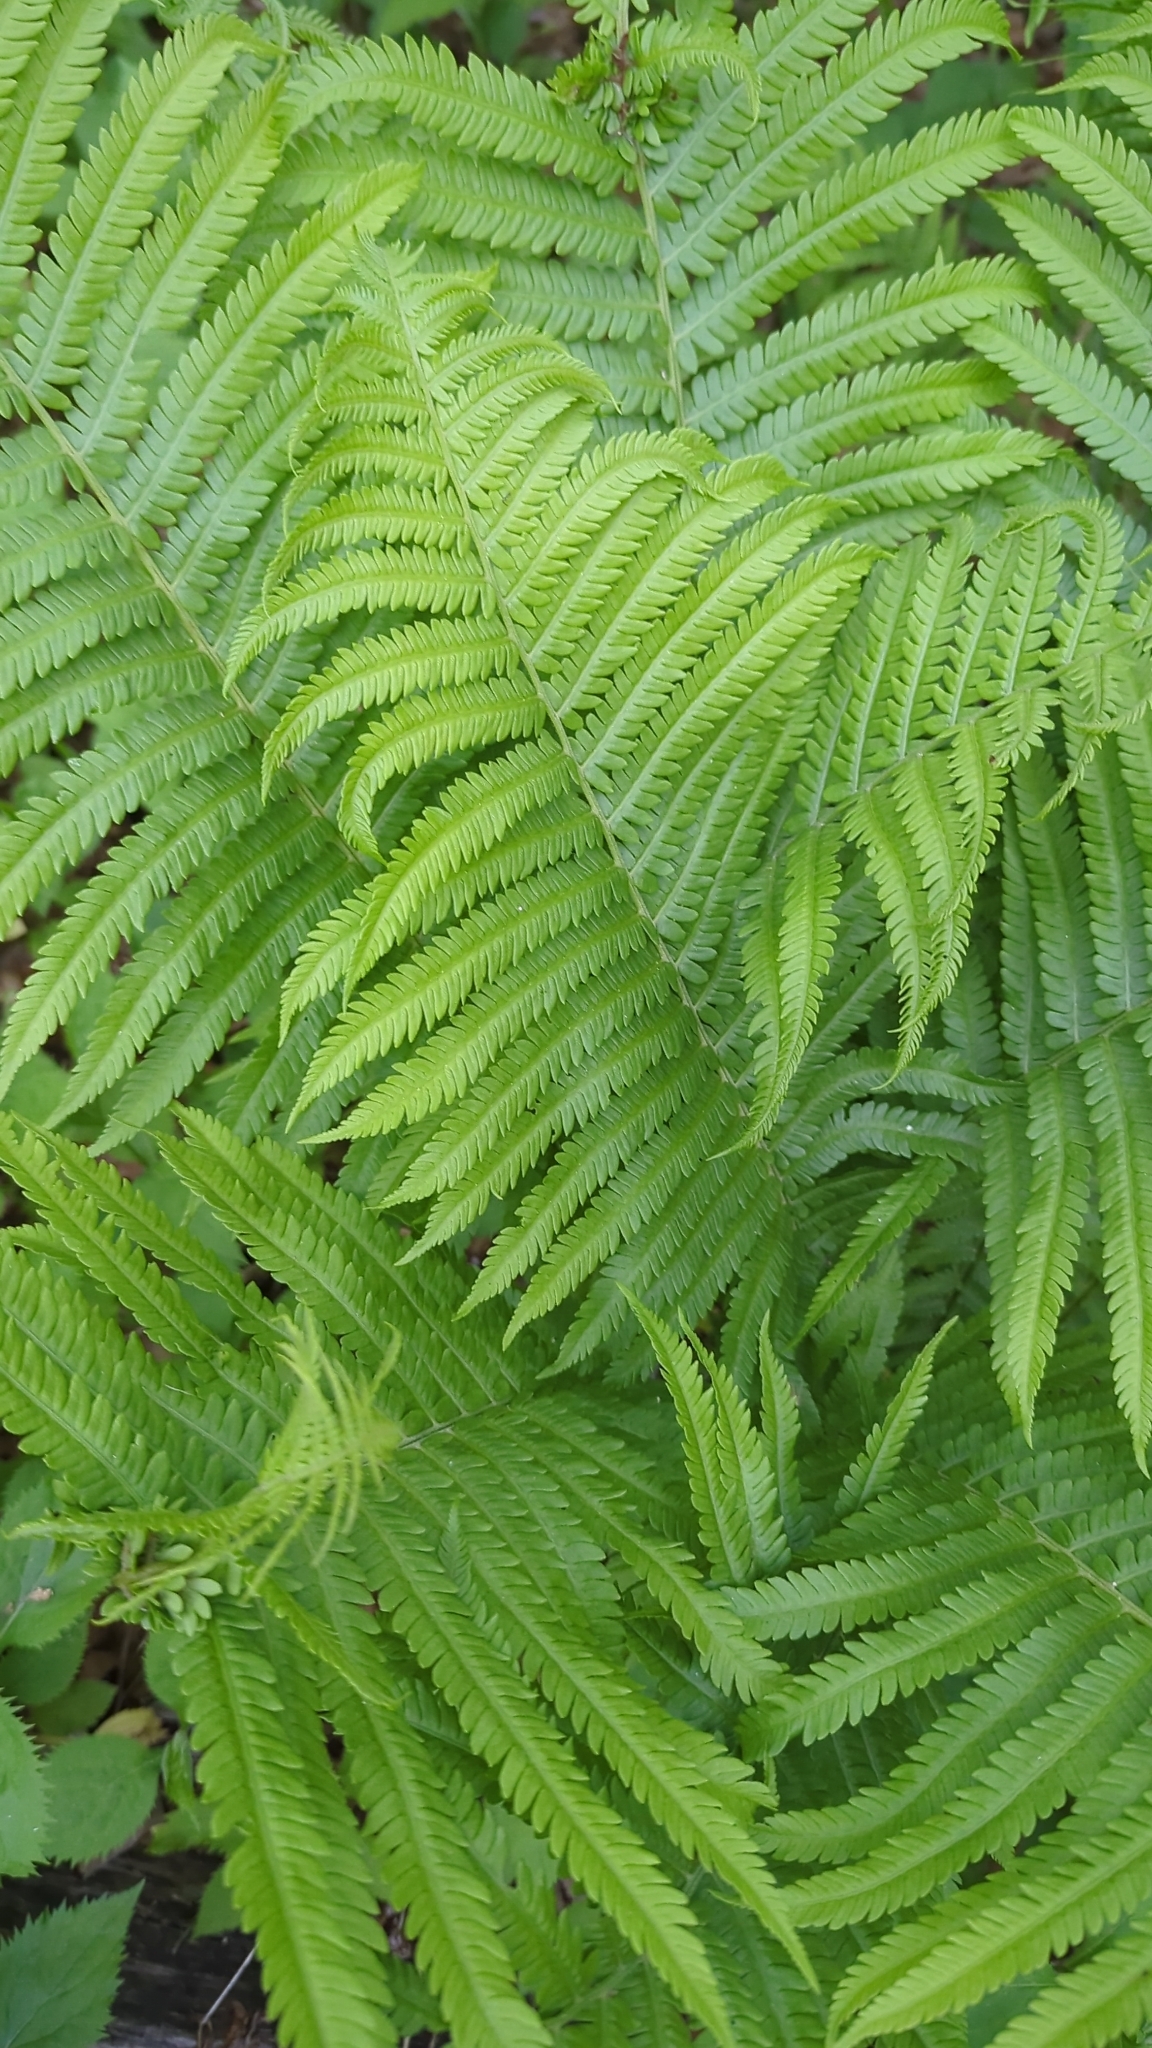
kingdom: Plantae
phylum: Tracheophyta
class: Polypodiopsida
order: Polypodiales
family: Onocleaceae
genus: Matteuccia
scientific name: Matteuccia struthiopteris
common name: Ostrich fern
